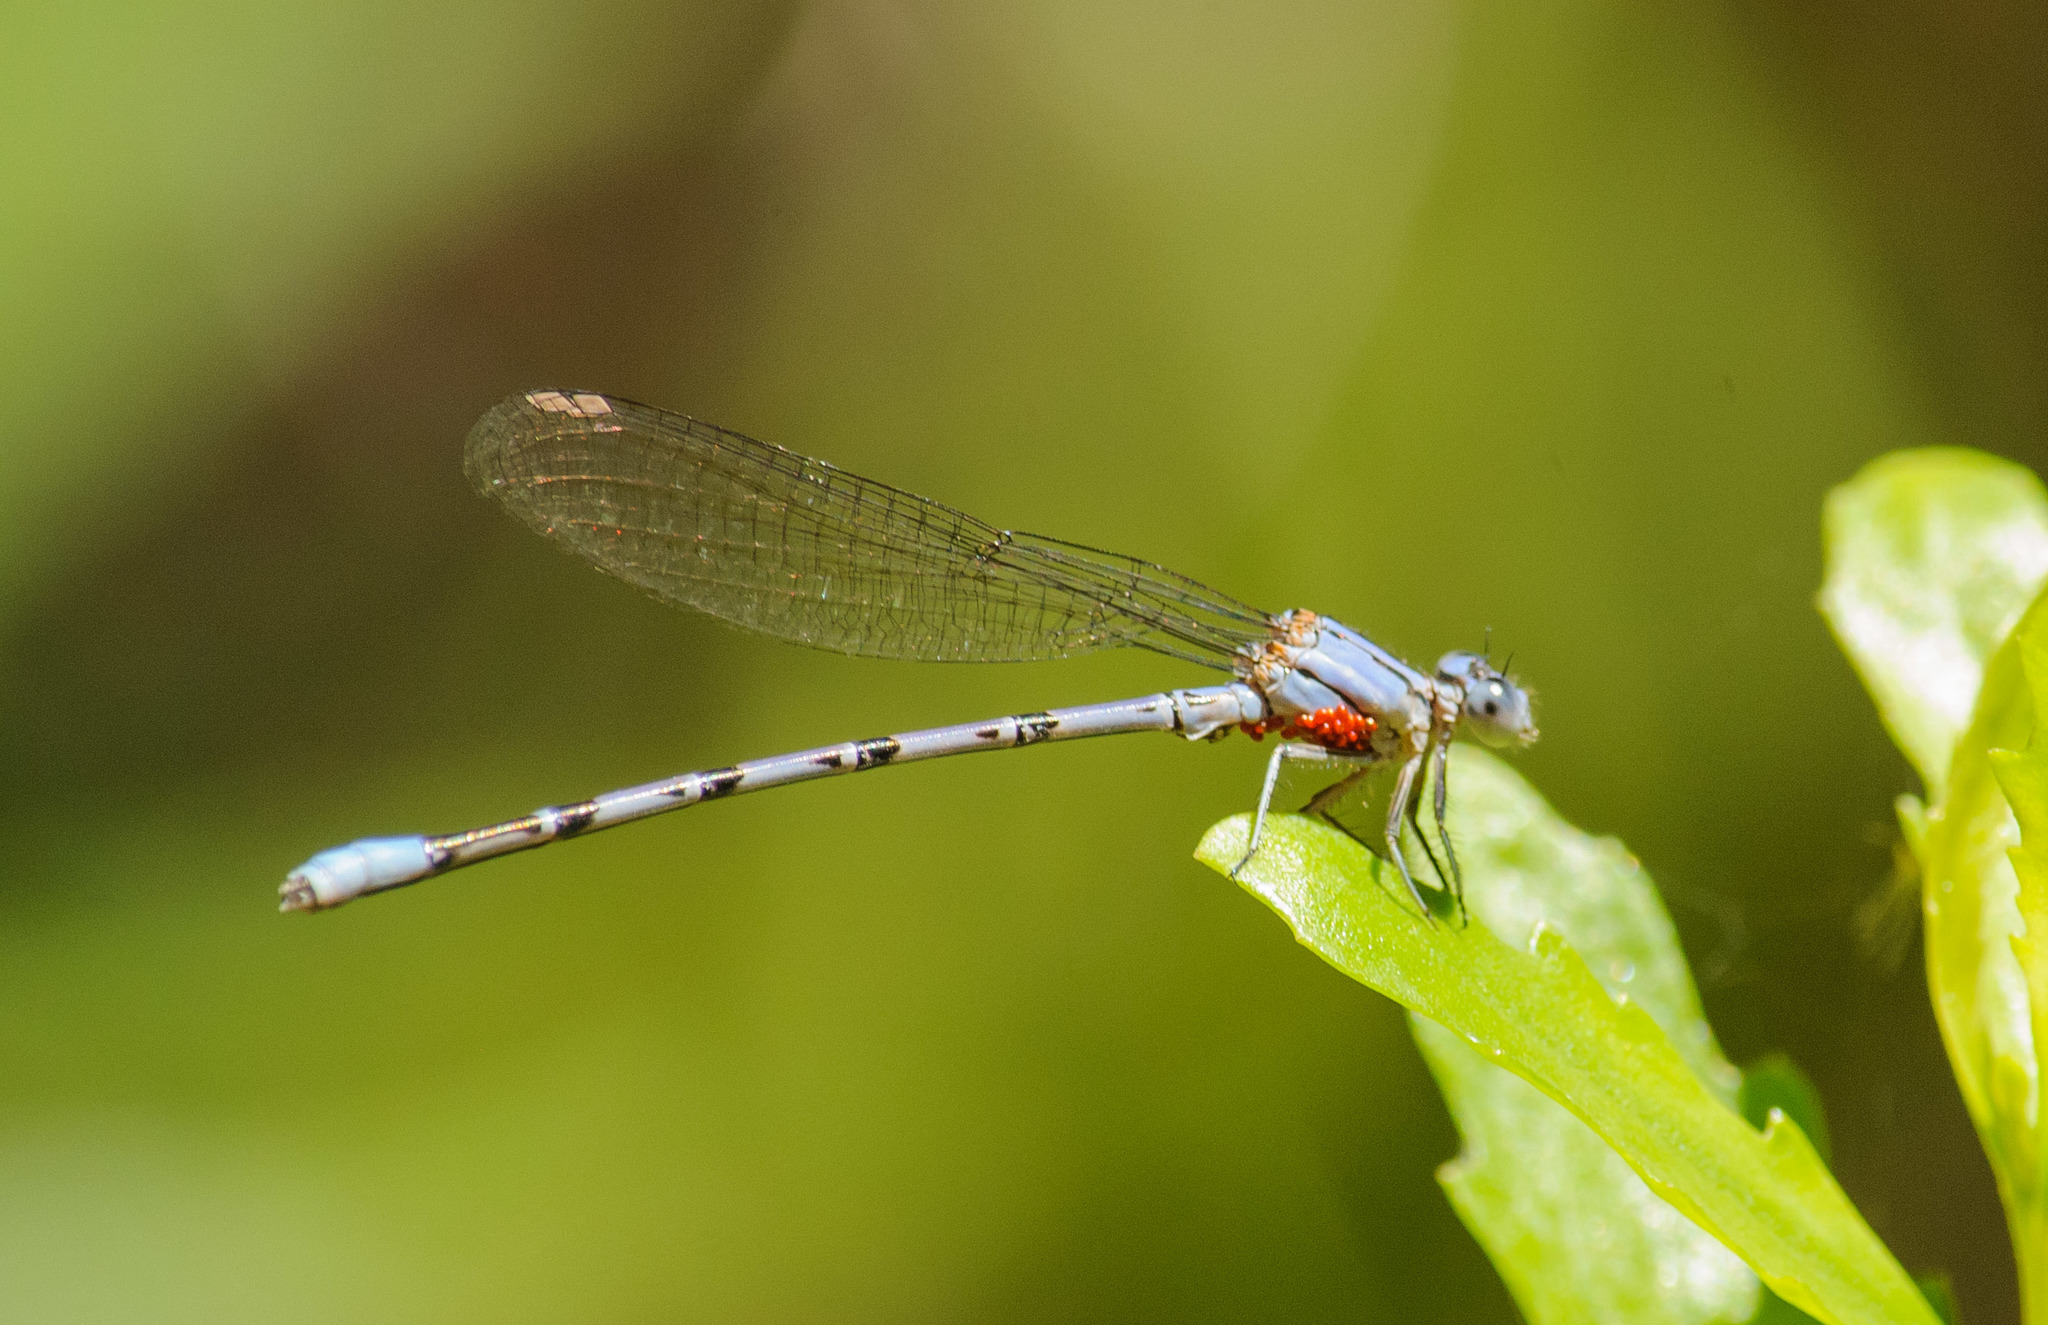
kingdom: Animalia
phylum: Arthropoda
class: Insecta
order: Odonata
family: Coenagrionidae
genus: Argia
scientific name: Argia vivida
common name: Vivid dancer
